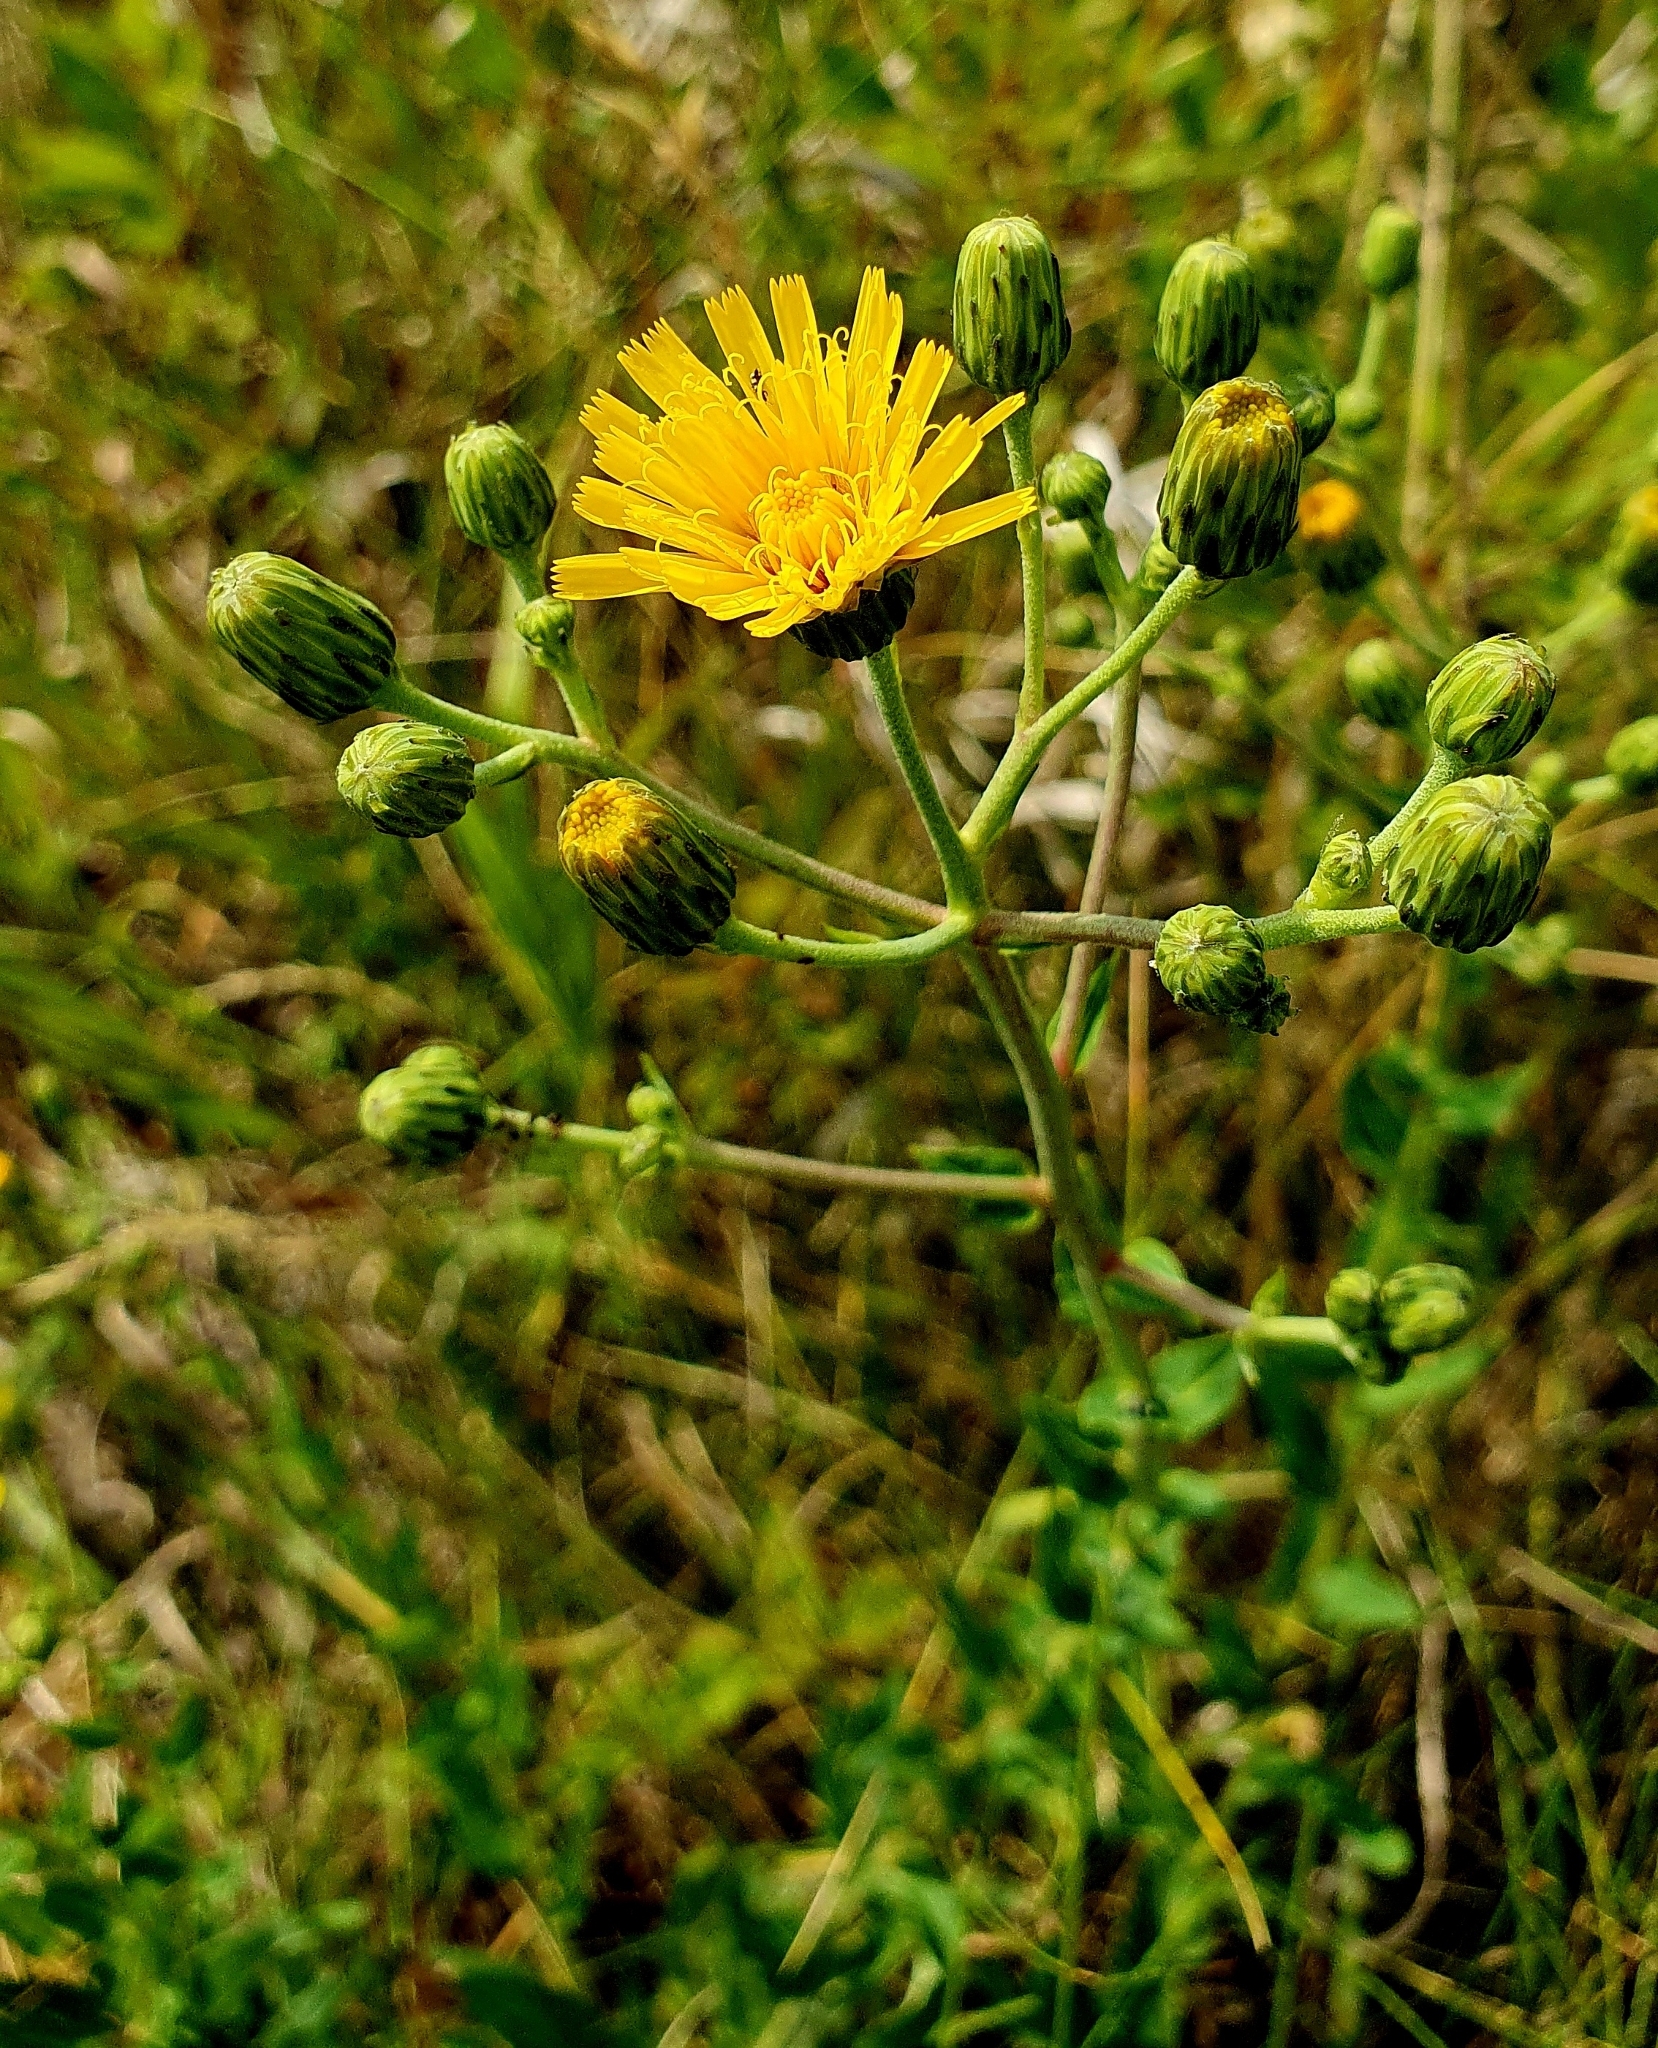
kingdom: Plantae
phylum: Tracheophyta
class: Magnoliopsida
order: Asterales
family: Asteraceae
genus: Hieracium
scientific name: Hieracium robustum
